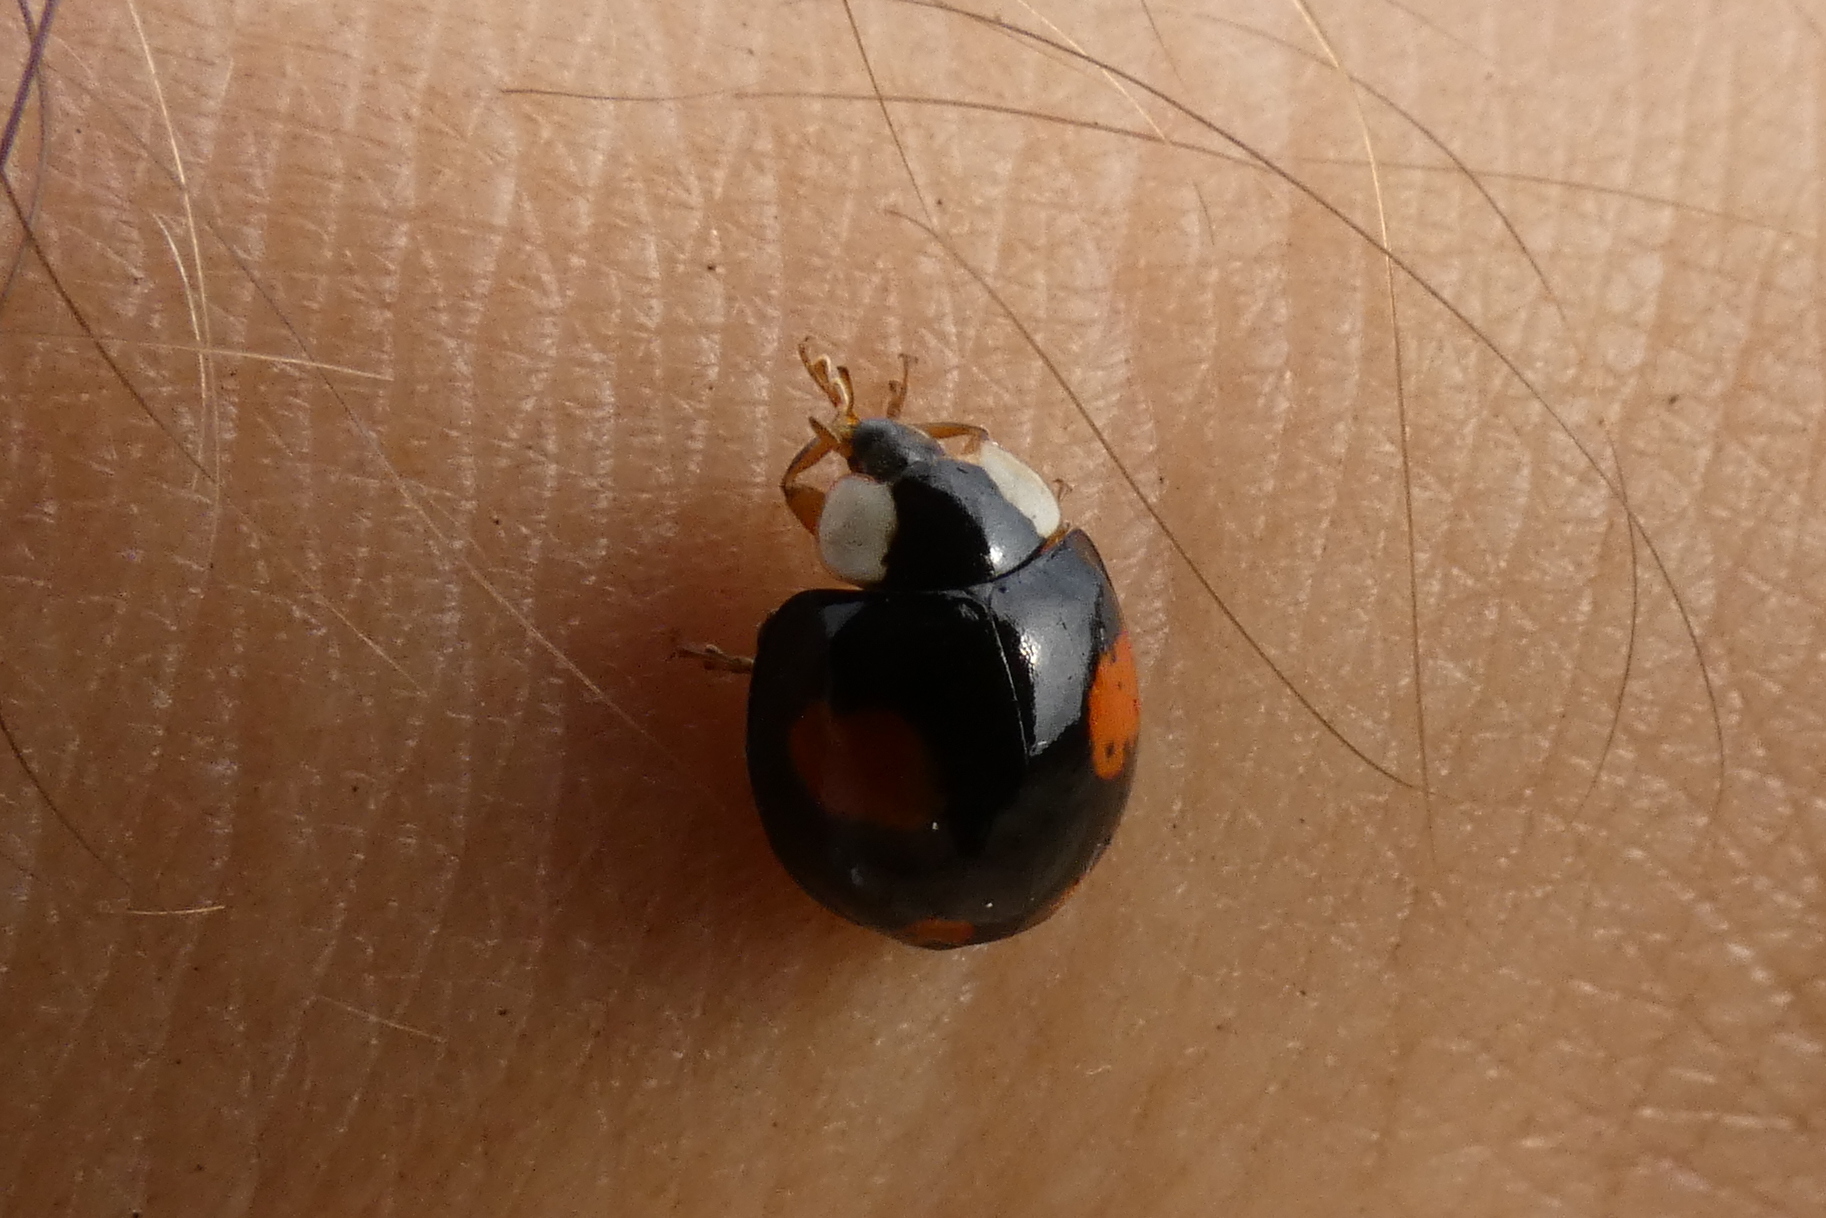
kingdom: Animalia
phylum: Arthropoda
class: Insecta
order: Coleoptera
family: Coccinellidae
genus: Harmonia
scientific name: Harmonia axyridis
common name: Harlequin ladybird
